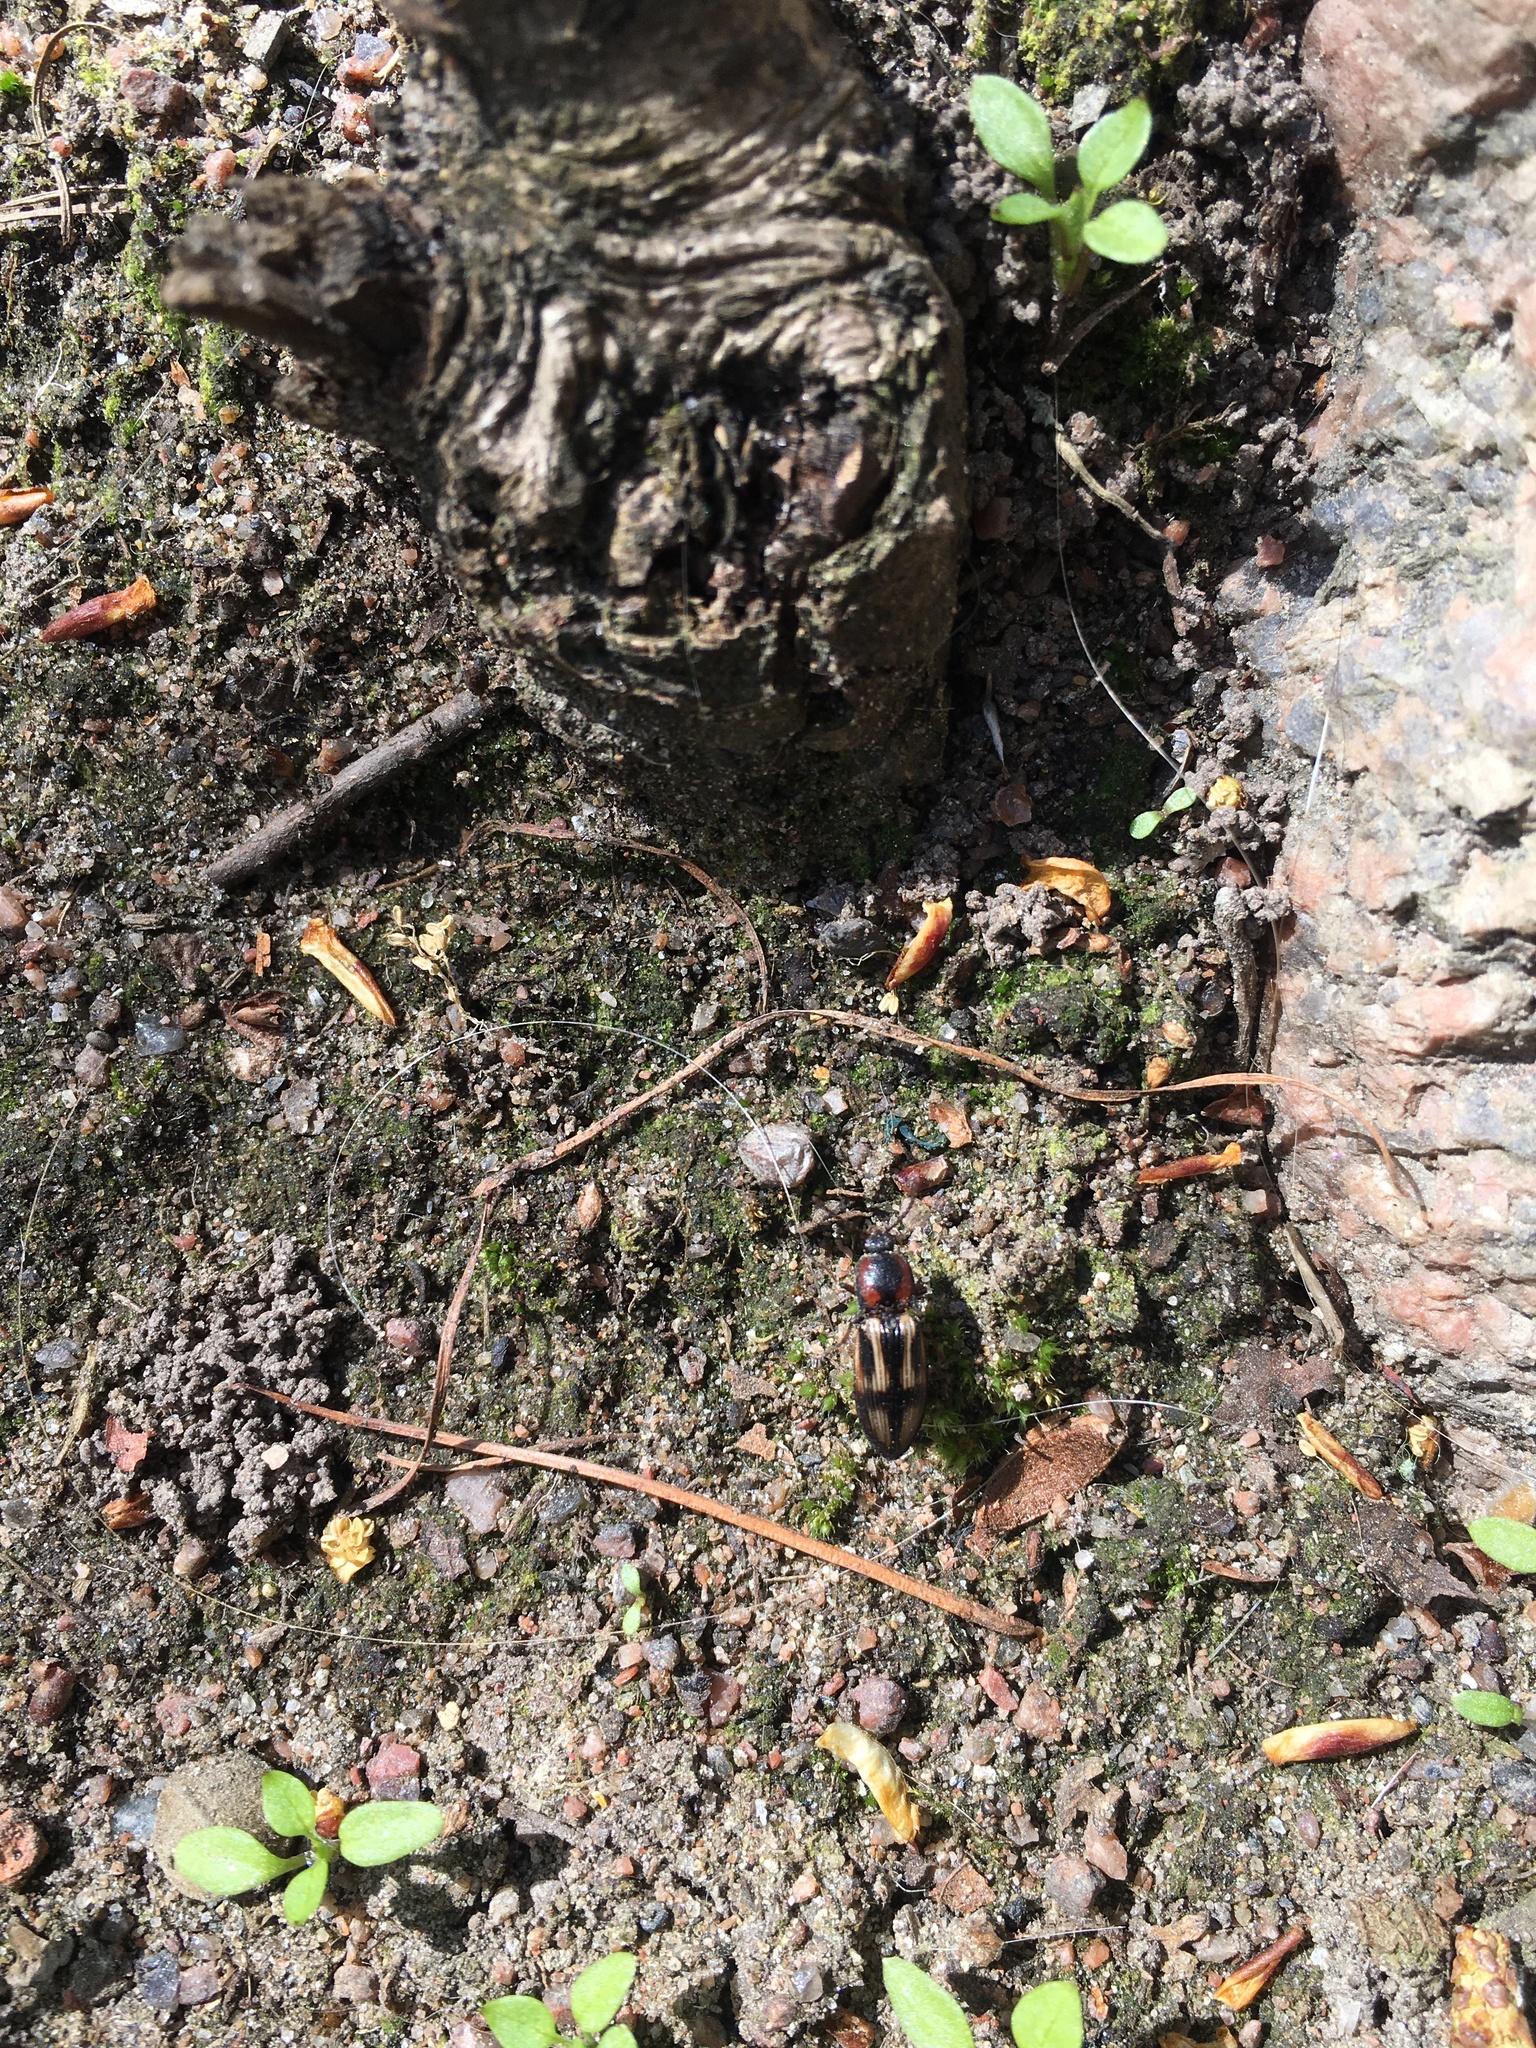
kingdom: Animalia
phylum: Arthropoda
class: Insecta
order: Coleoptera
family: Elateridae
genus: Selatosomus
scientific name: Selatosomus cruciatus
